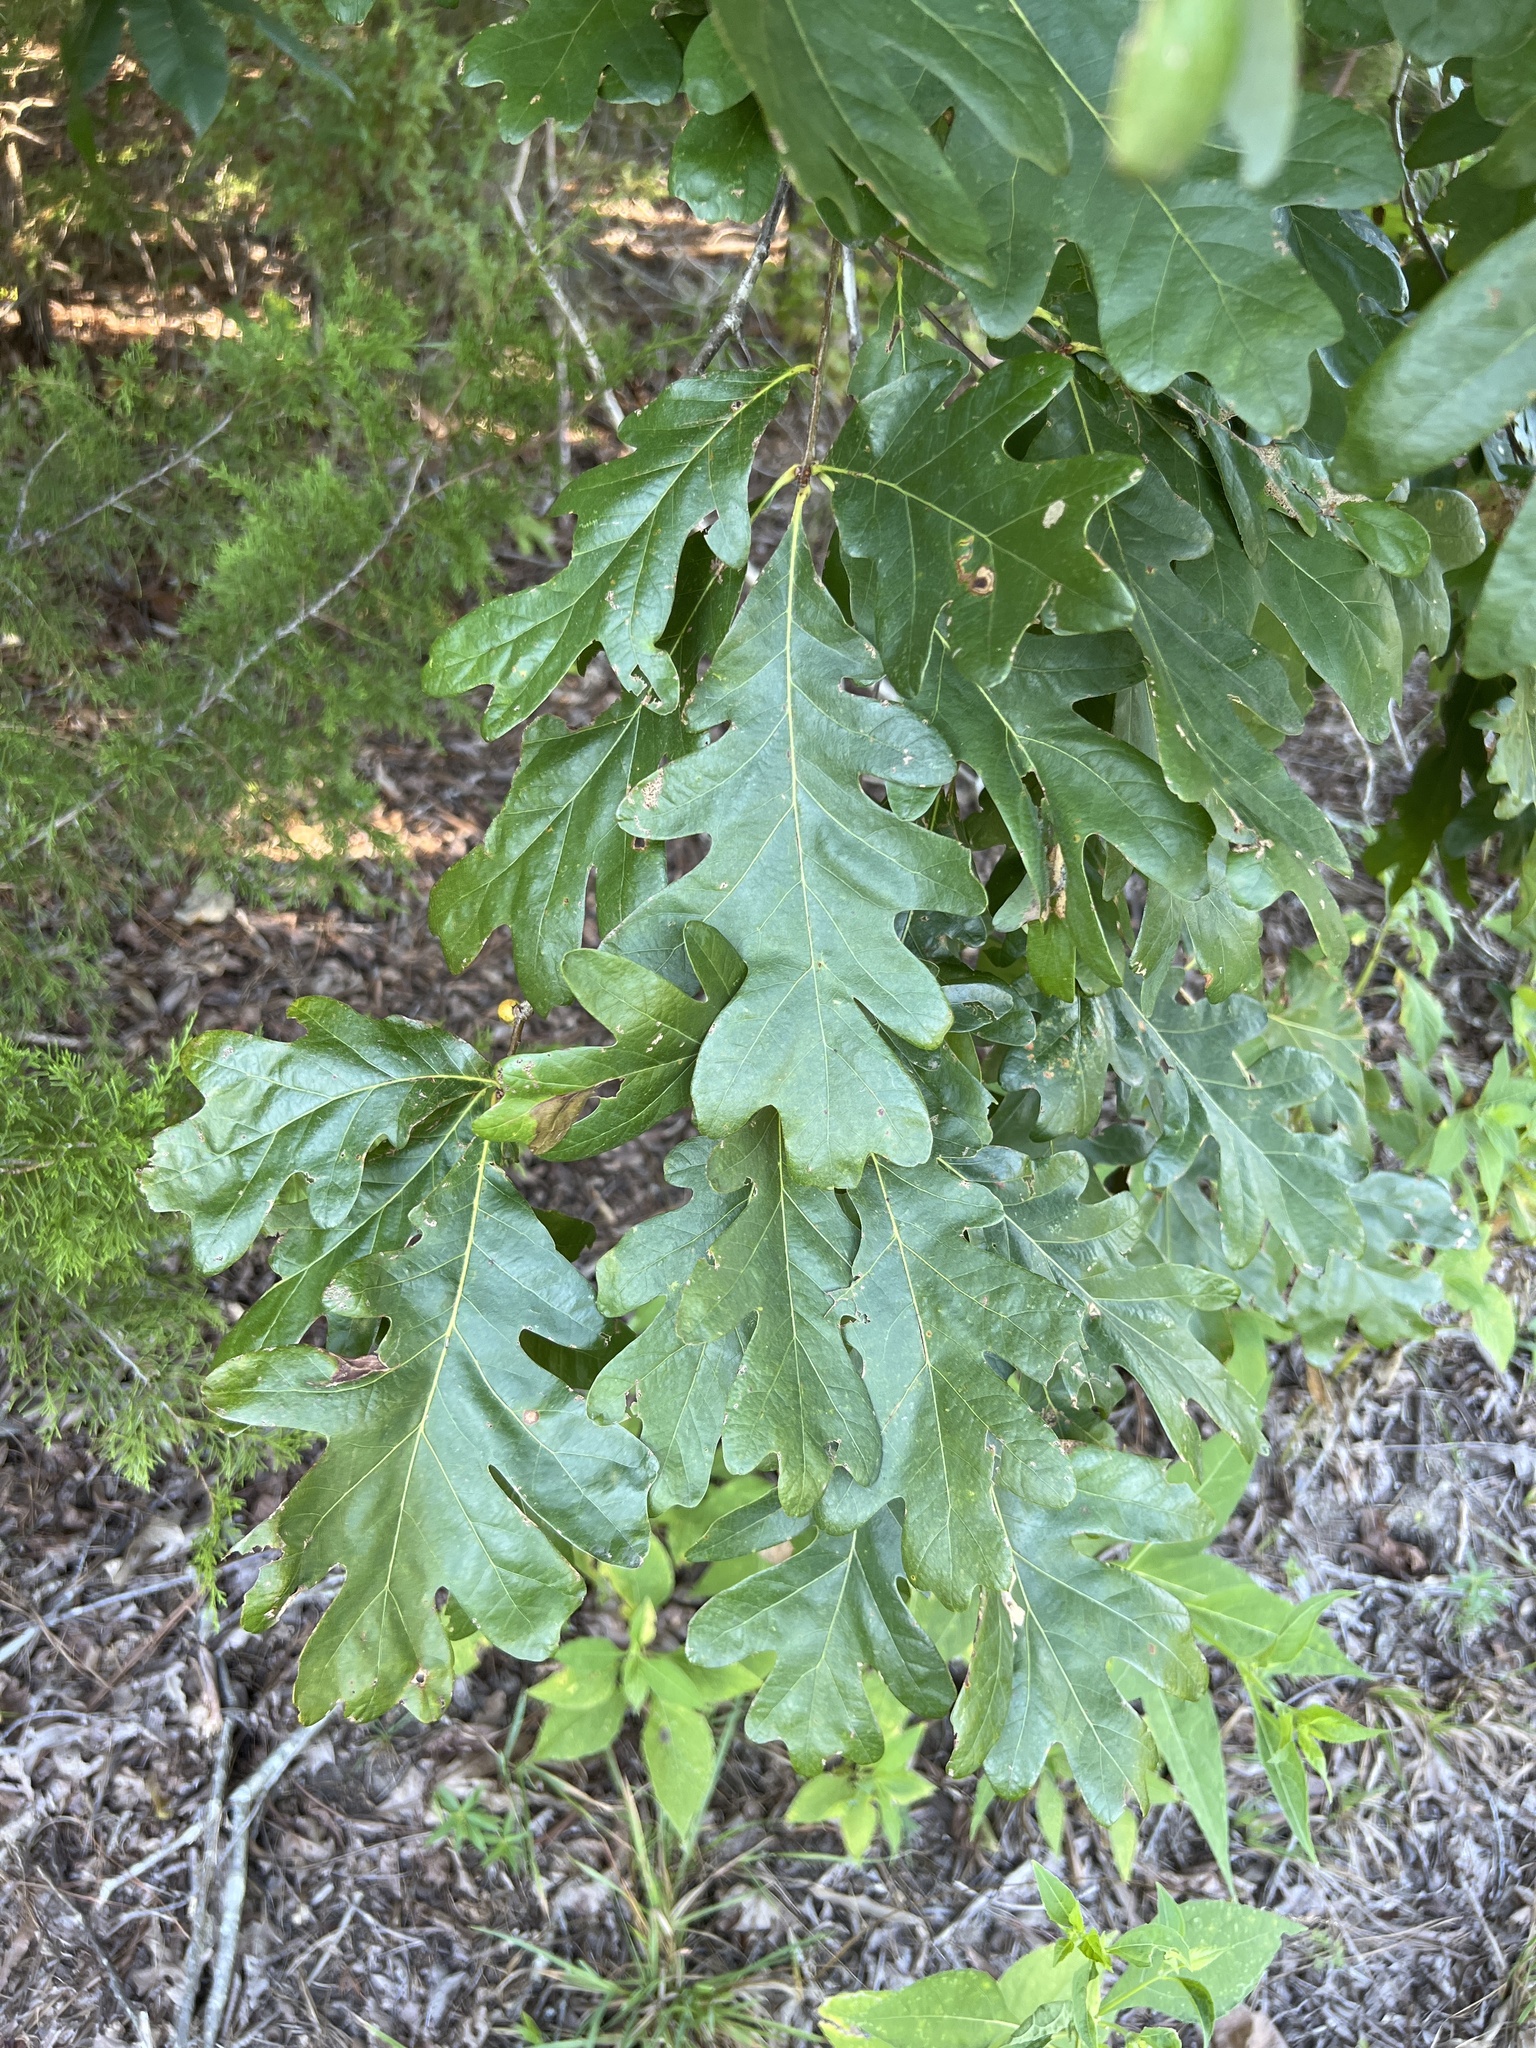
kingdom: Plantae
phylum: Tracheophyta
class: Magnoliopsida
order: Fagales
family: Fagaceae
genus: Quercus
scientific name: Quercus alba
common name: White oak
